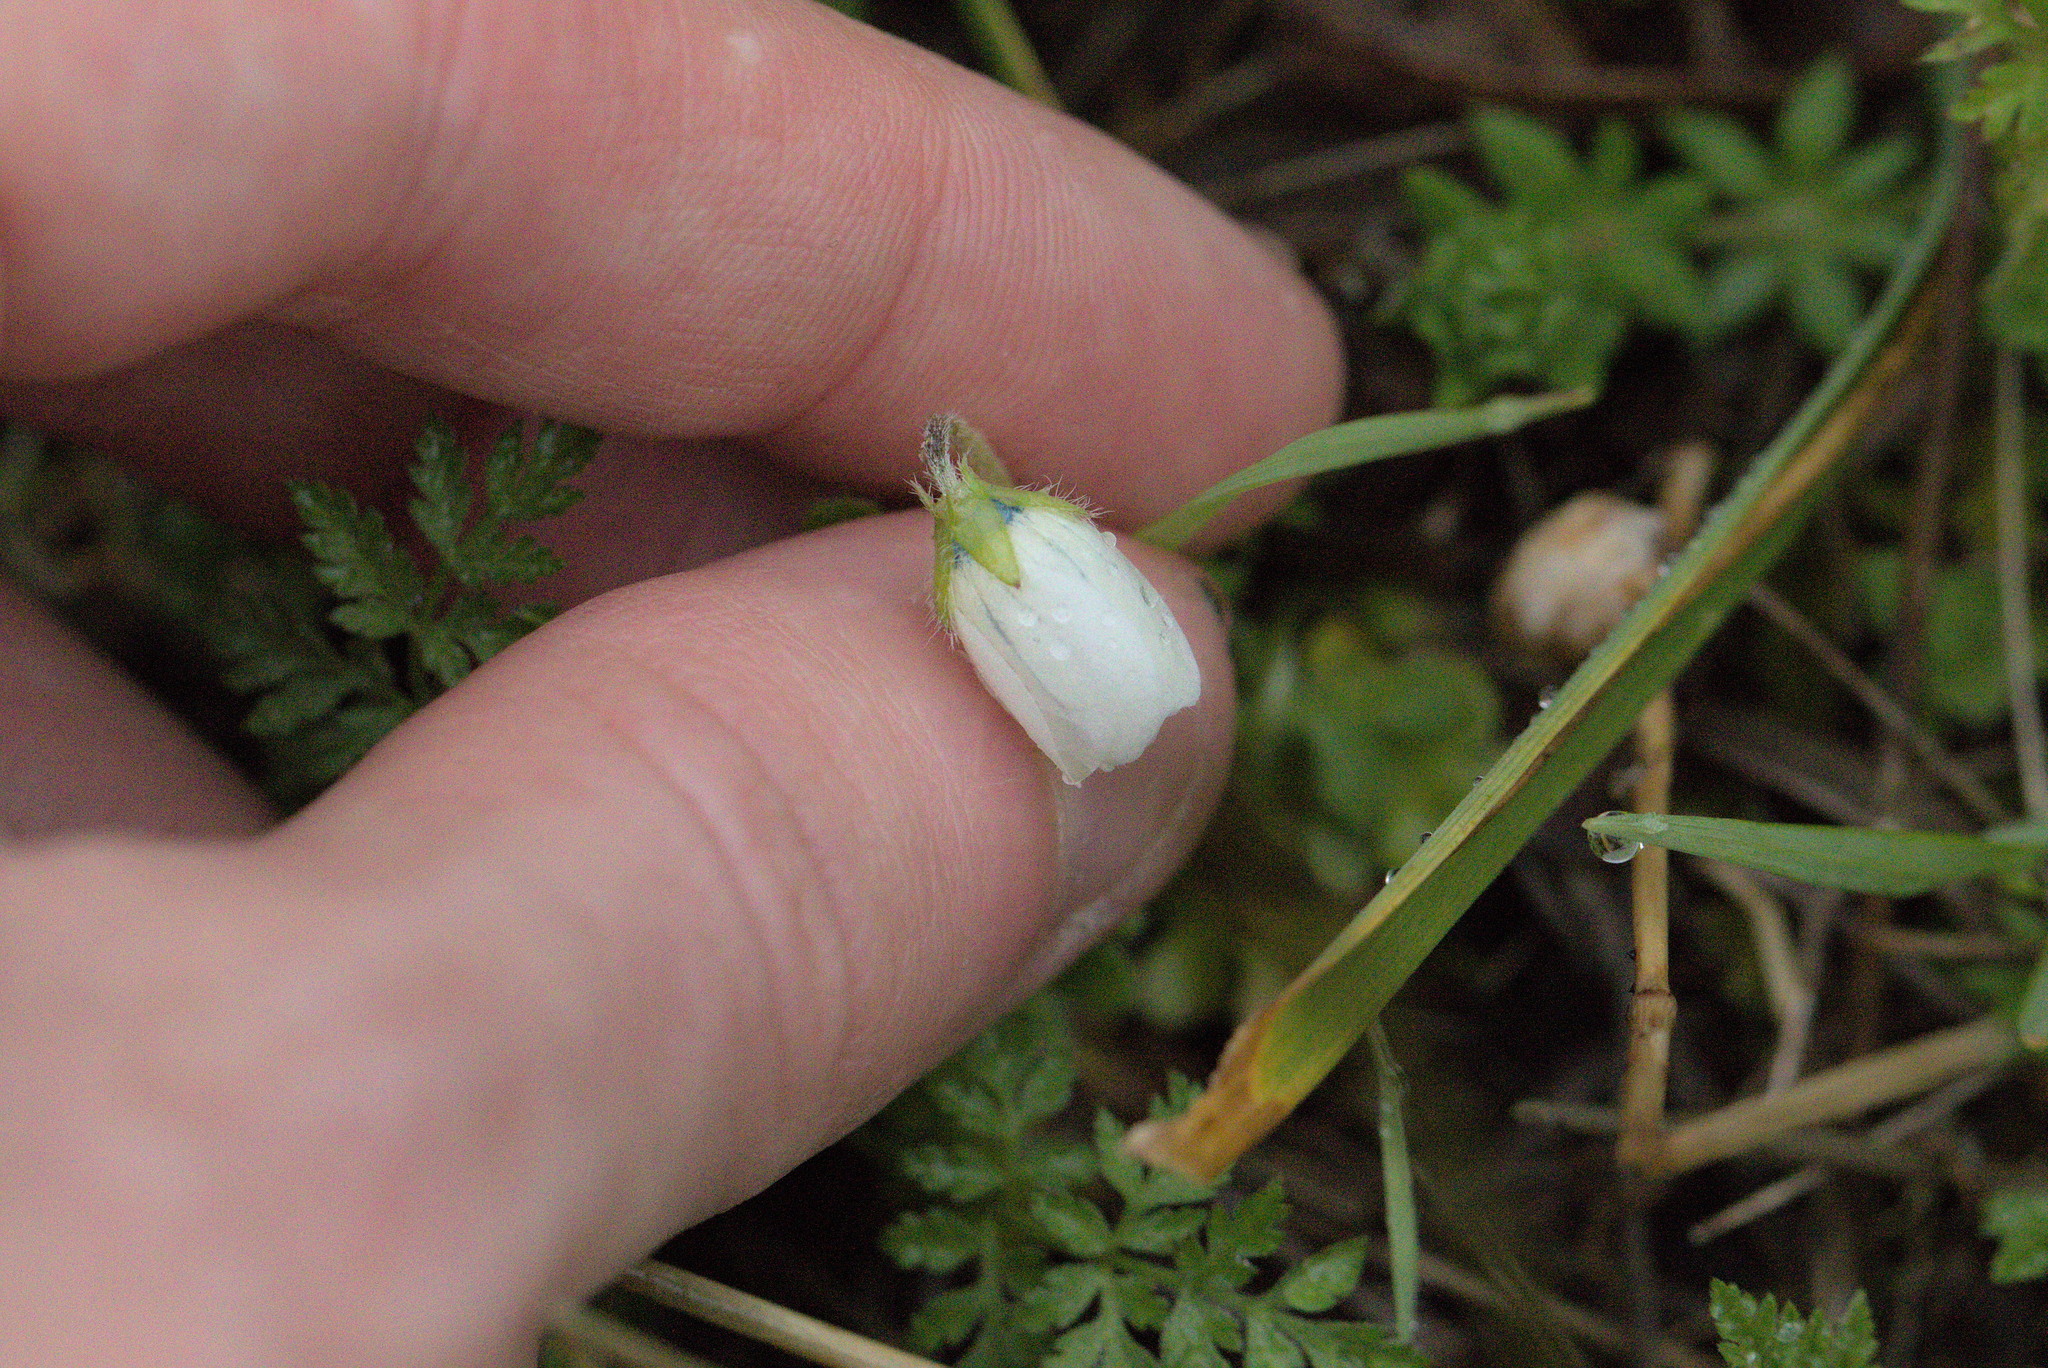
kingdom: Plantae
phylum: Tracheophyta
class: Magnoliopsida
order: Boraginales
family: Hydrophyllaceae
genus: Nemophila
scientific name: Nemophila menziesii
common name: Baby's-blue-eyes
